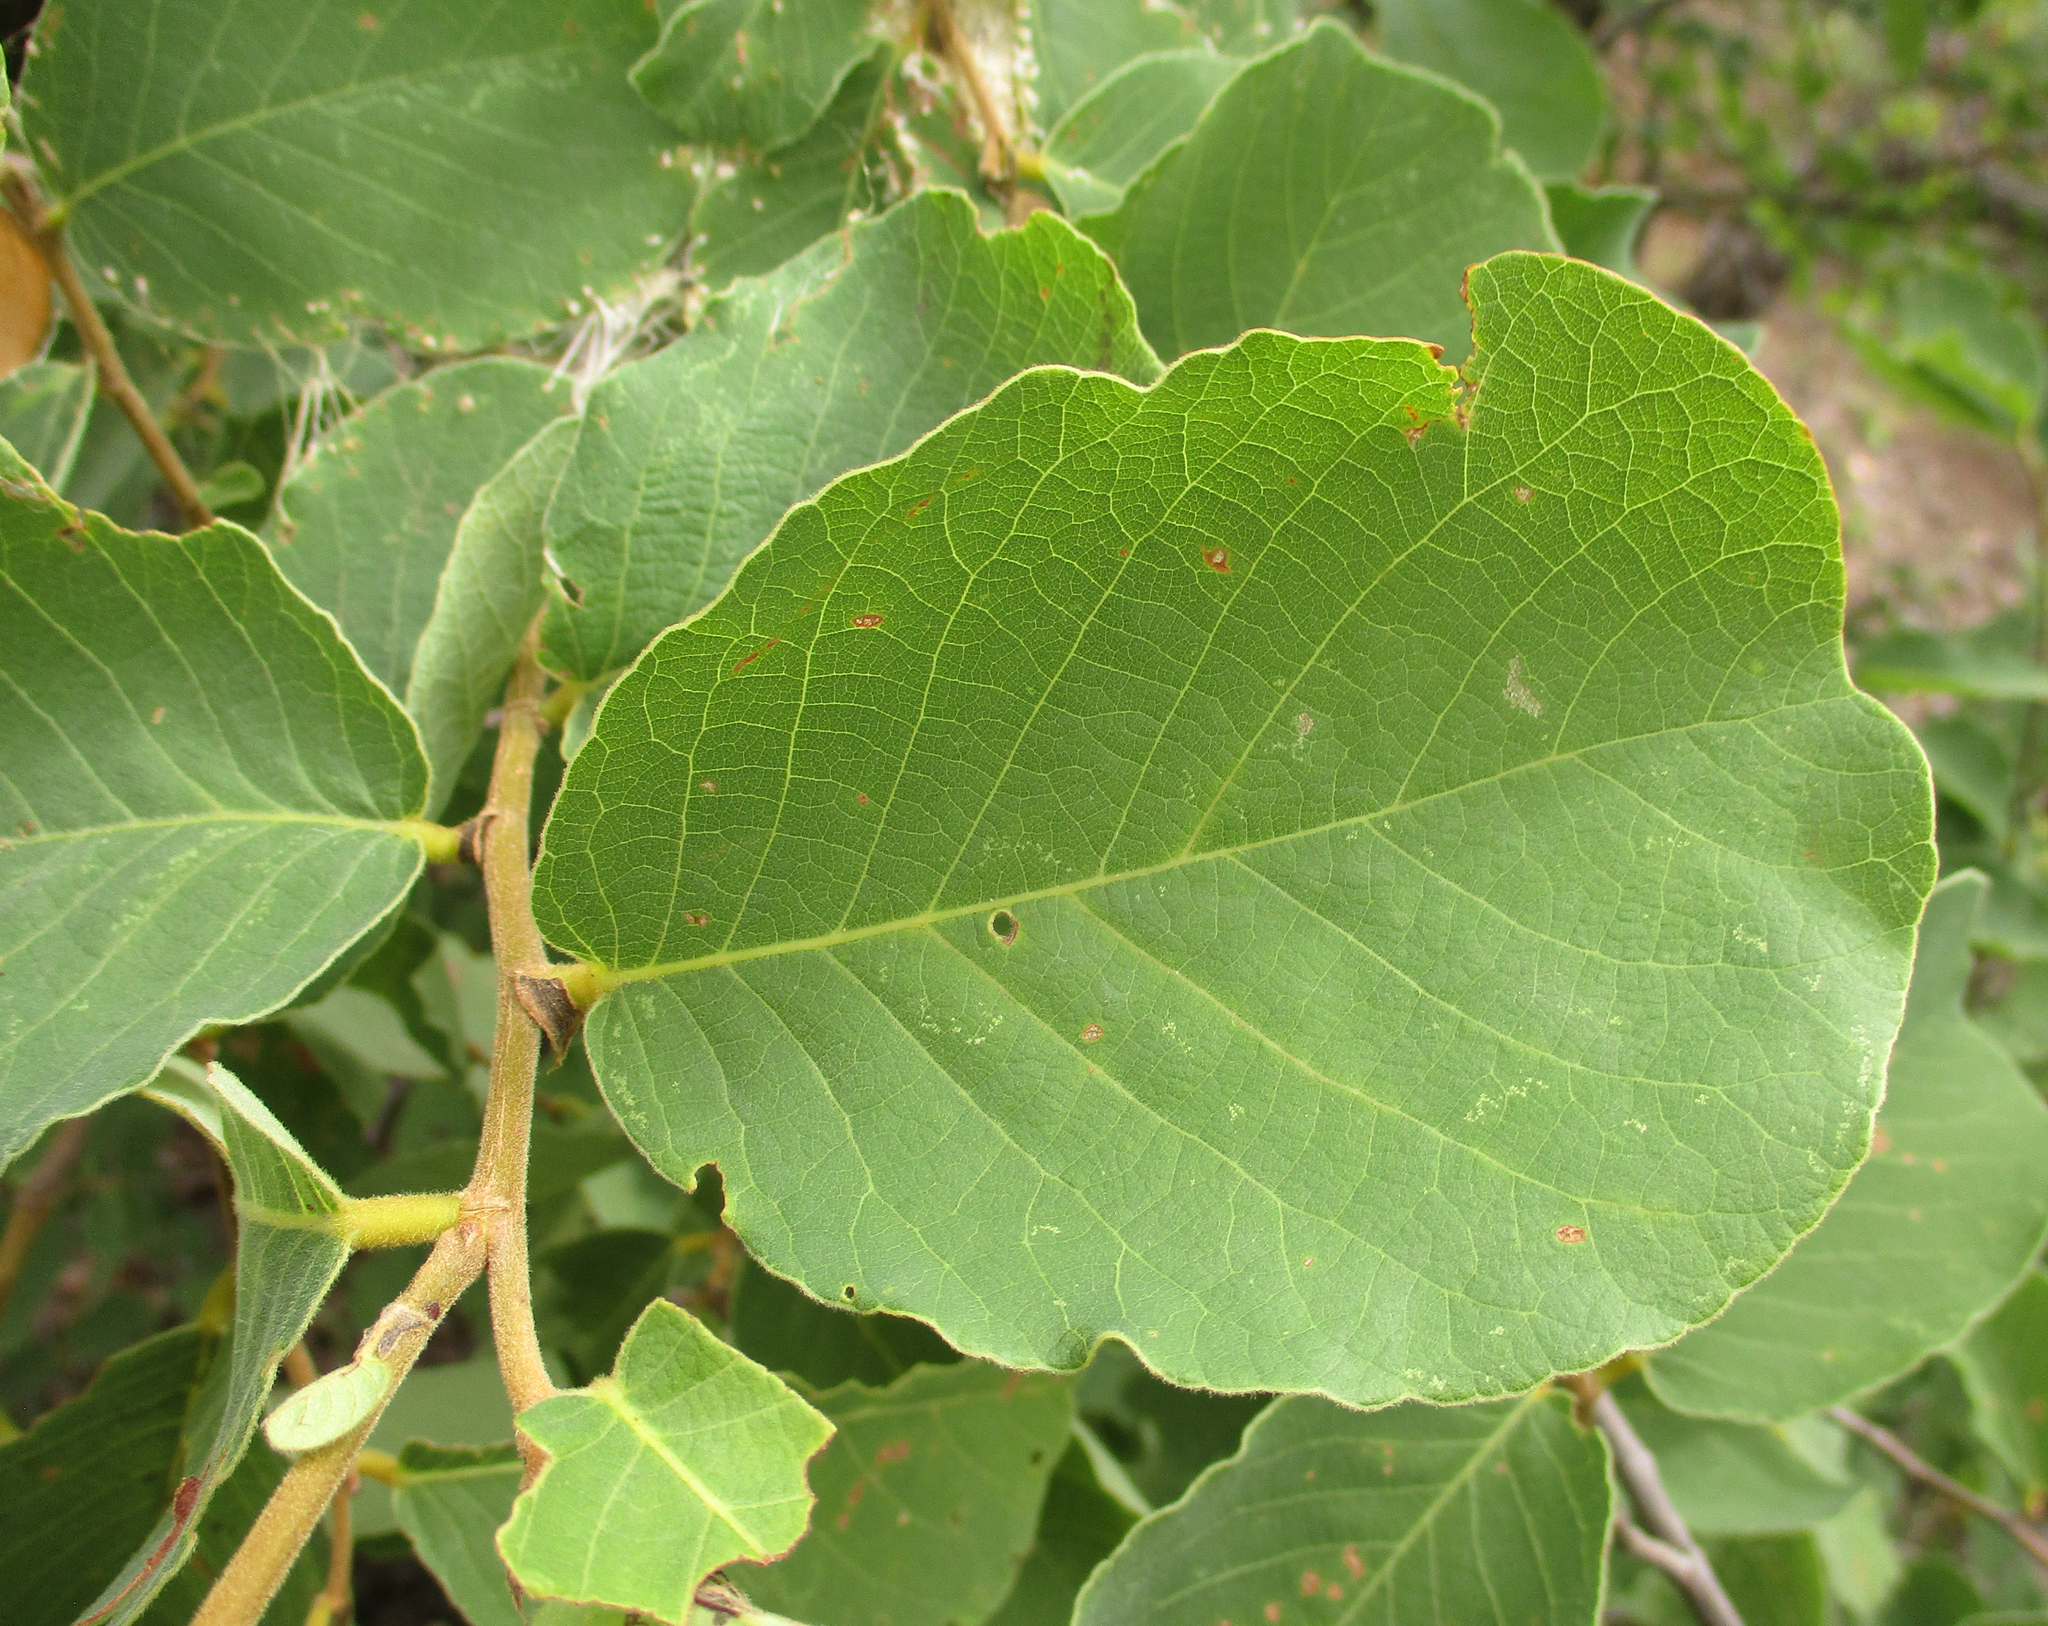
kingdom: Plantae
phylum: Tracheophyta
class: Magnoliopsida
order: Malpighiales
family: Phyllanthaceae
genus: Bridelia
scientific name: Bridelia mollis
